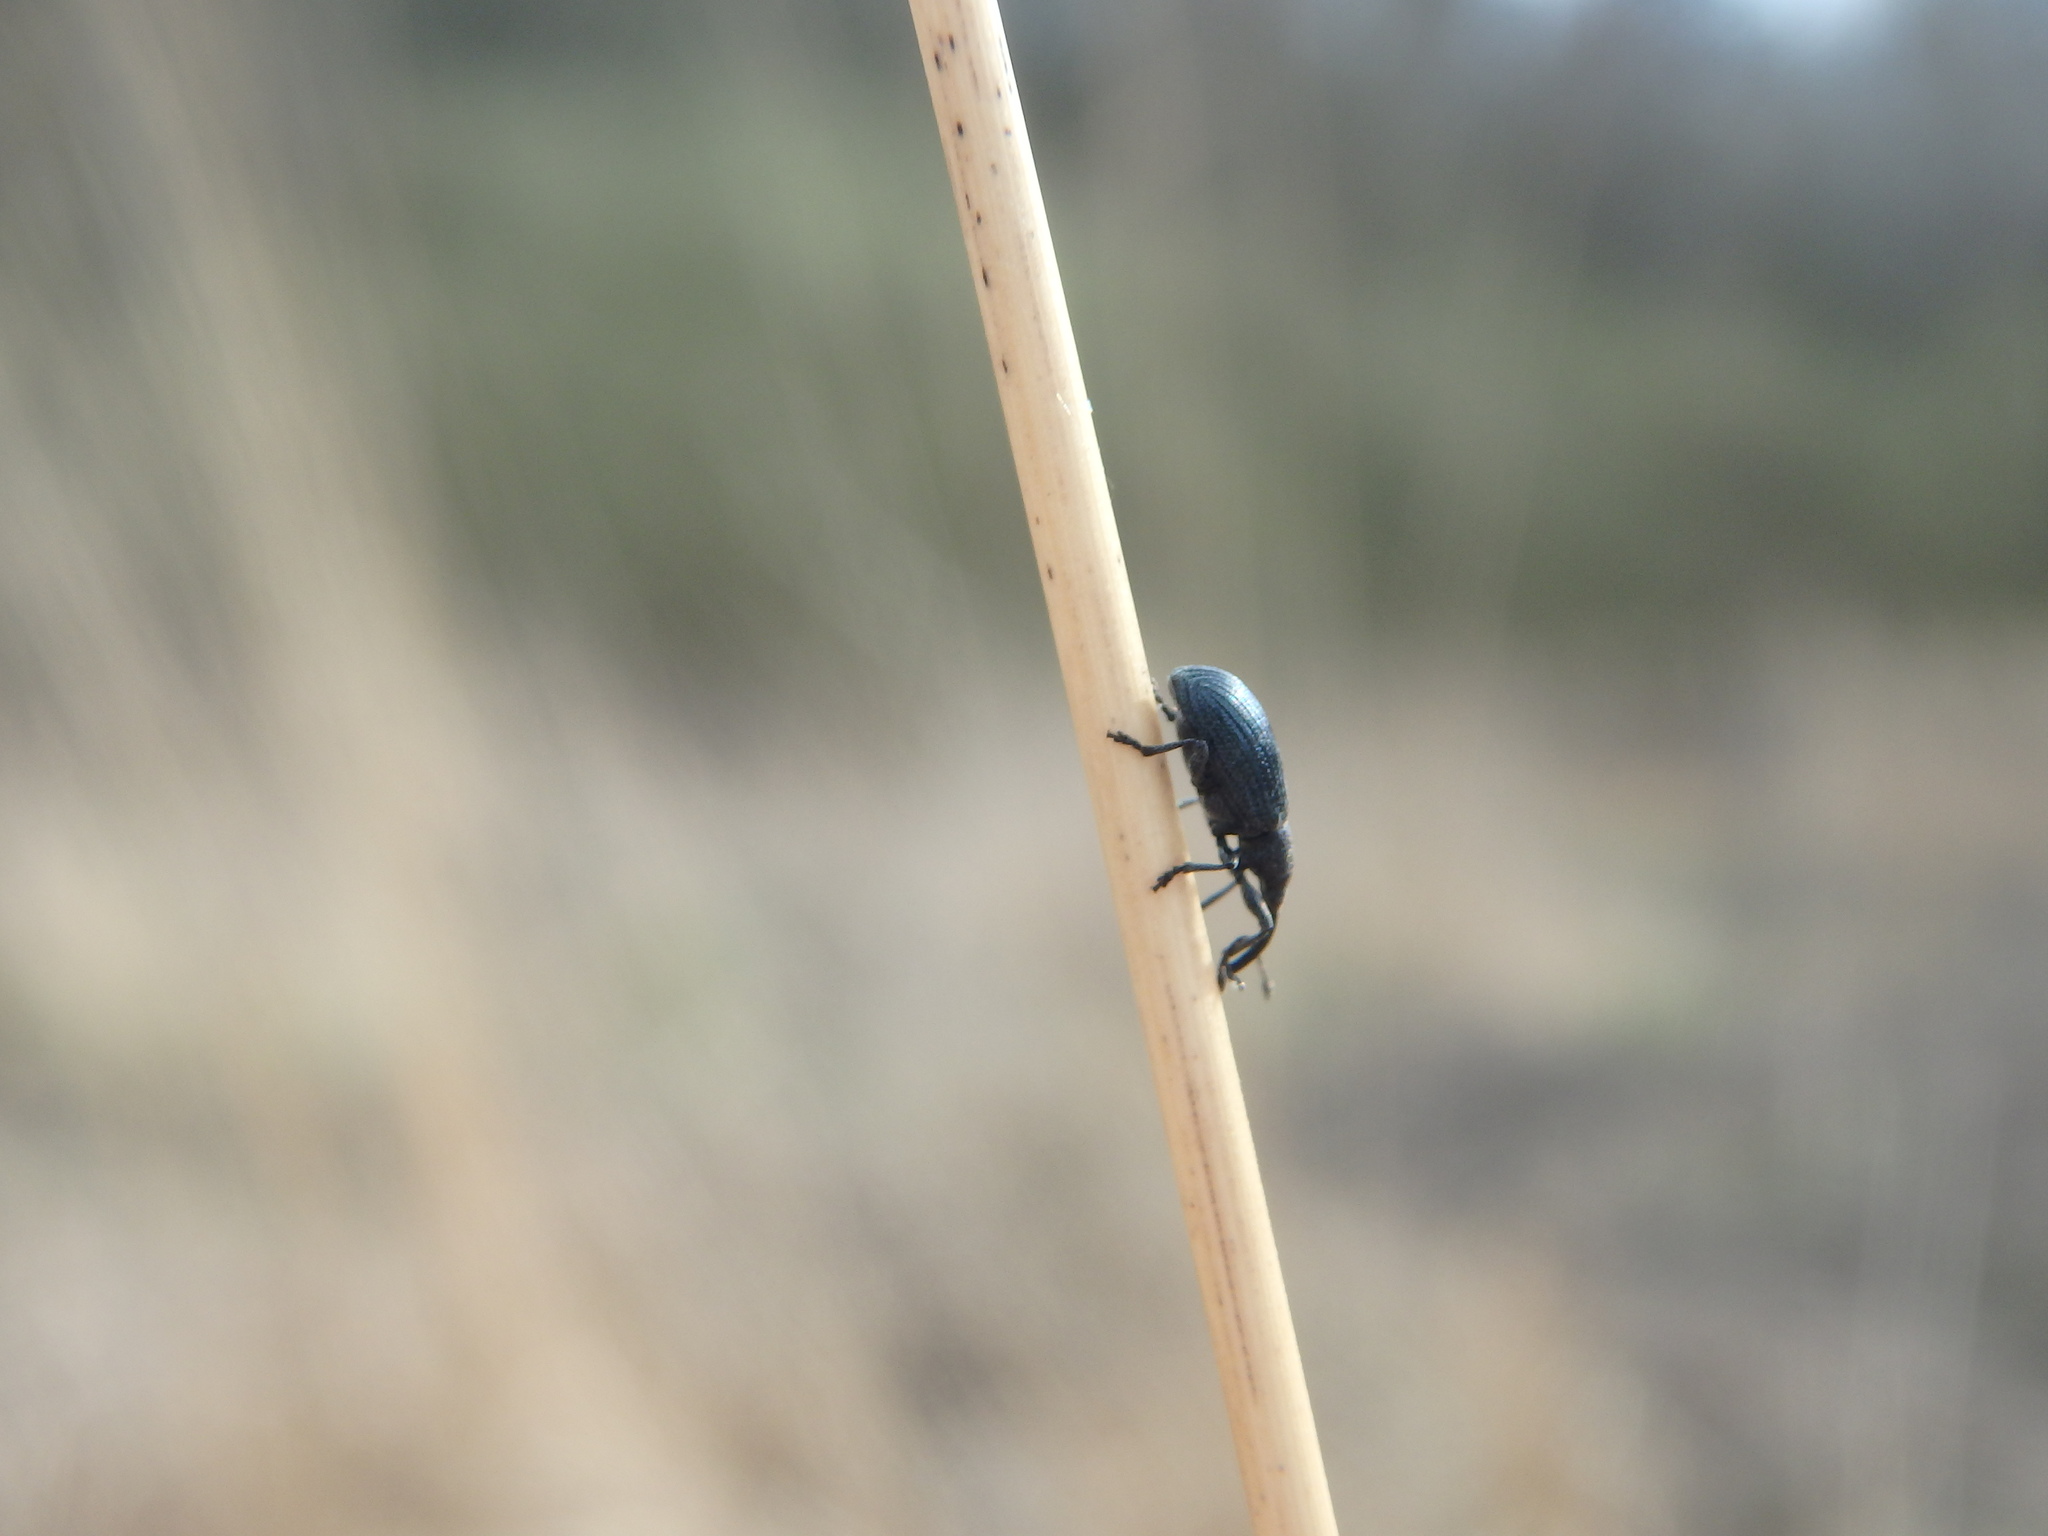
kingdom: Animalia
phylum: Arthropoda
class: Insecta
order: Coleoptera
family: Brentidae
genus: Stenopterapion
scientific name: Stenopterapion meliloti
